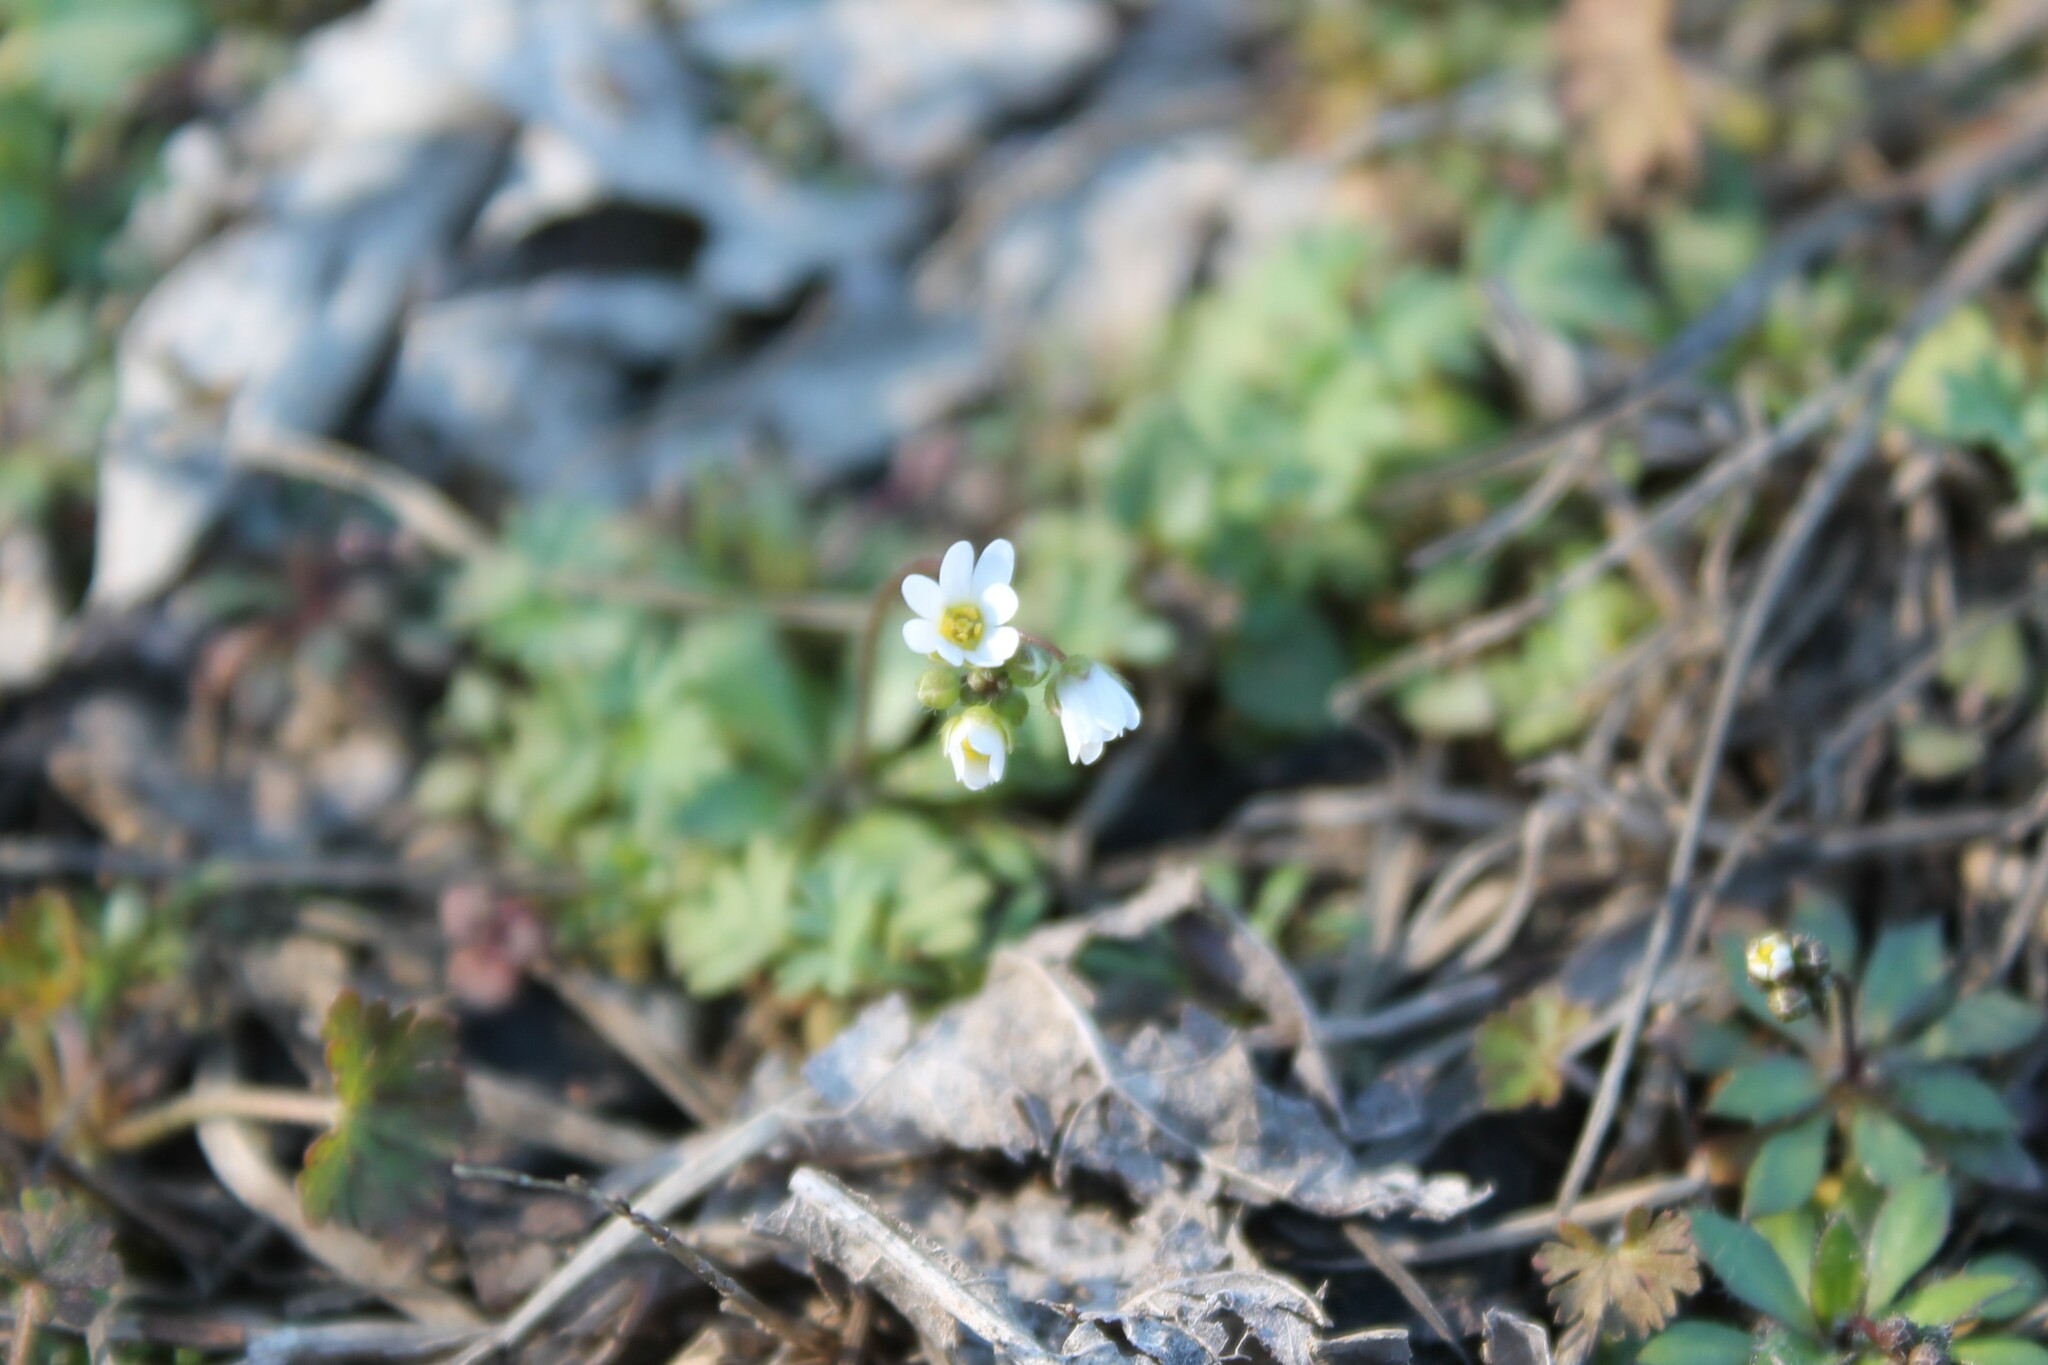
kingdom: Plantae
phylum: Tracheophyta
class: Magnoliopsida
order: Brassicales
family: Brassicaceae
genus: Draba
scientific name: Draba verna
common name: Spring draba
